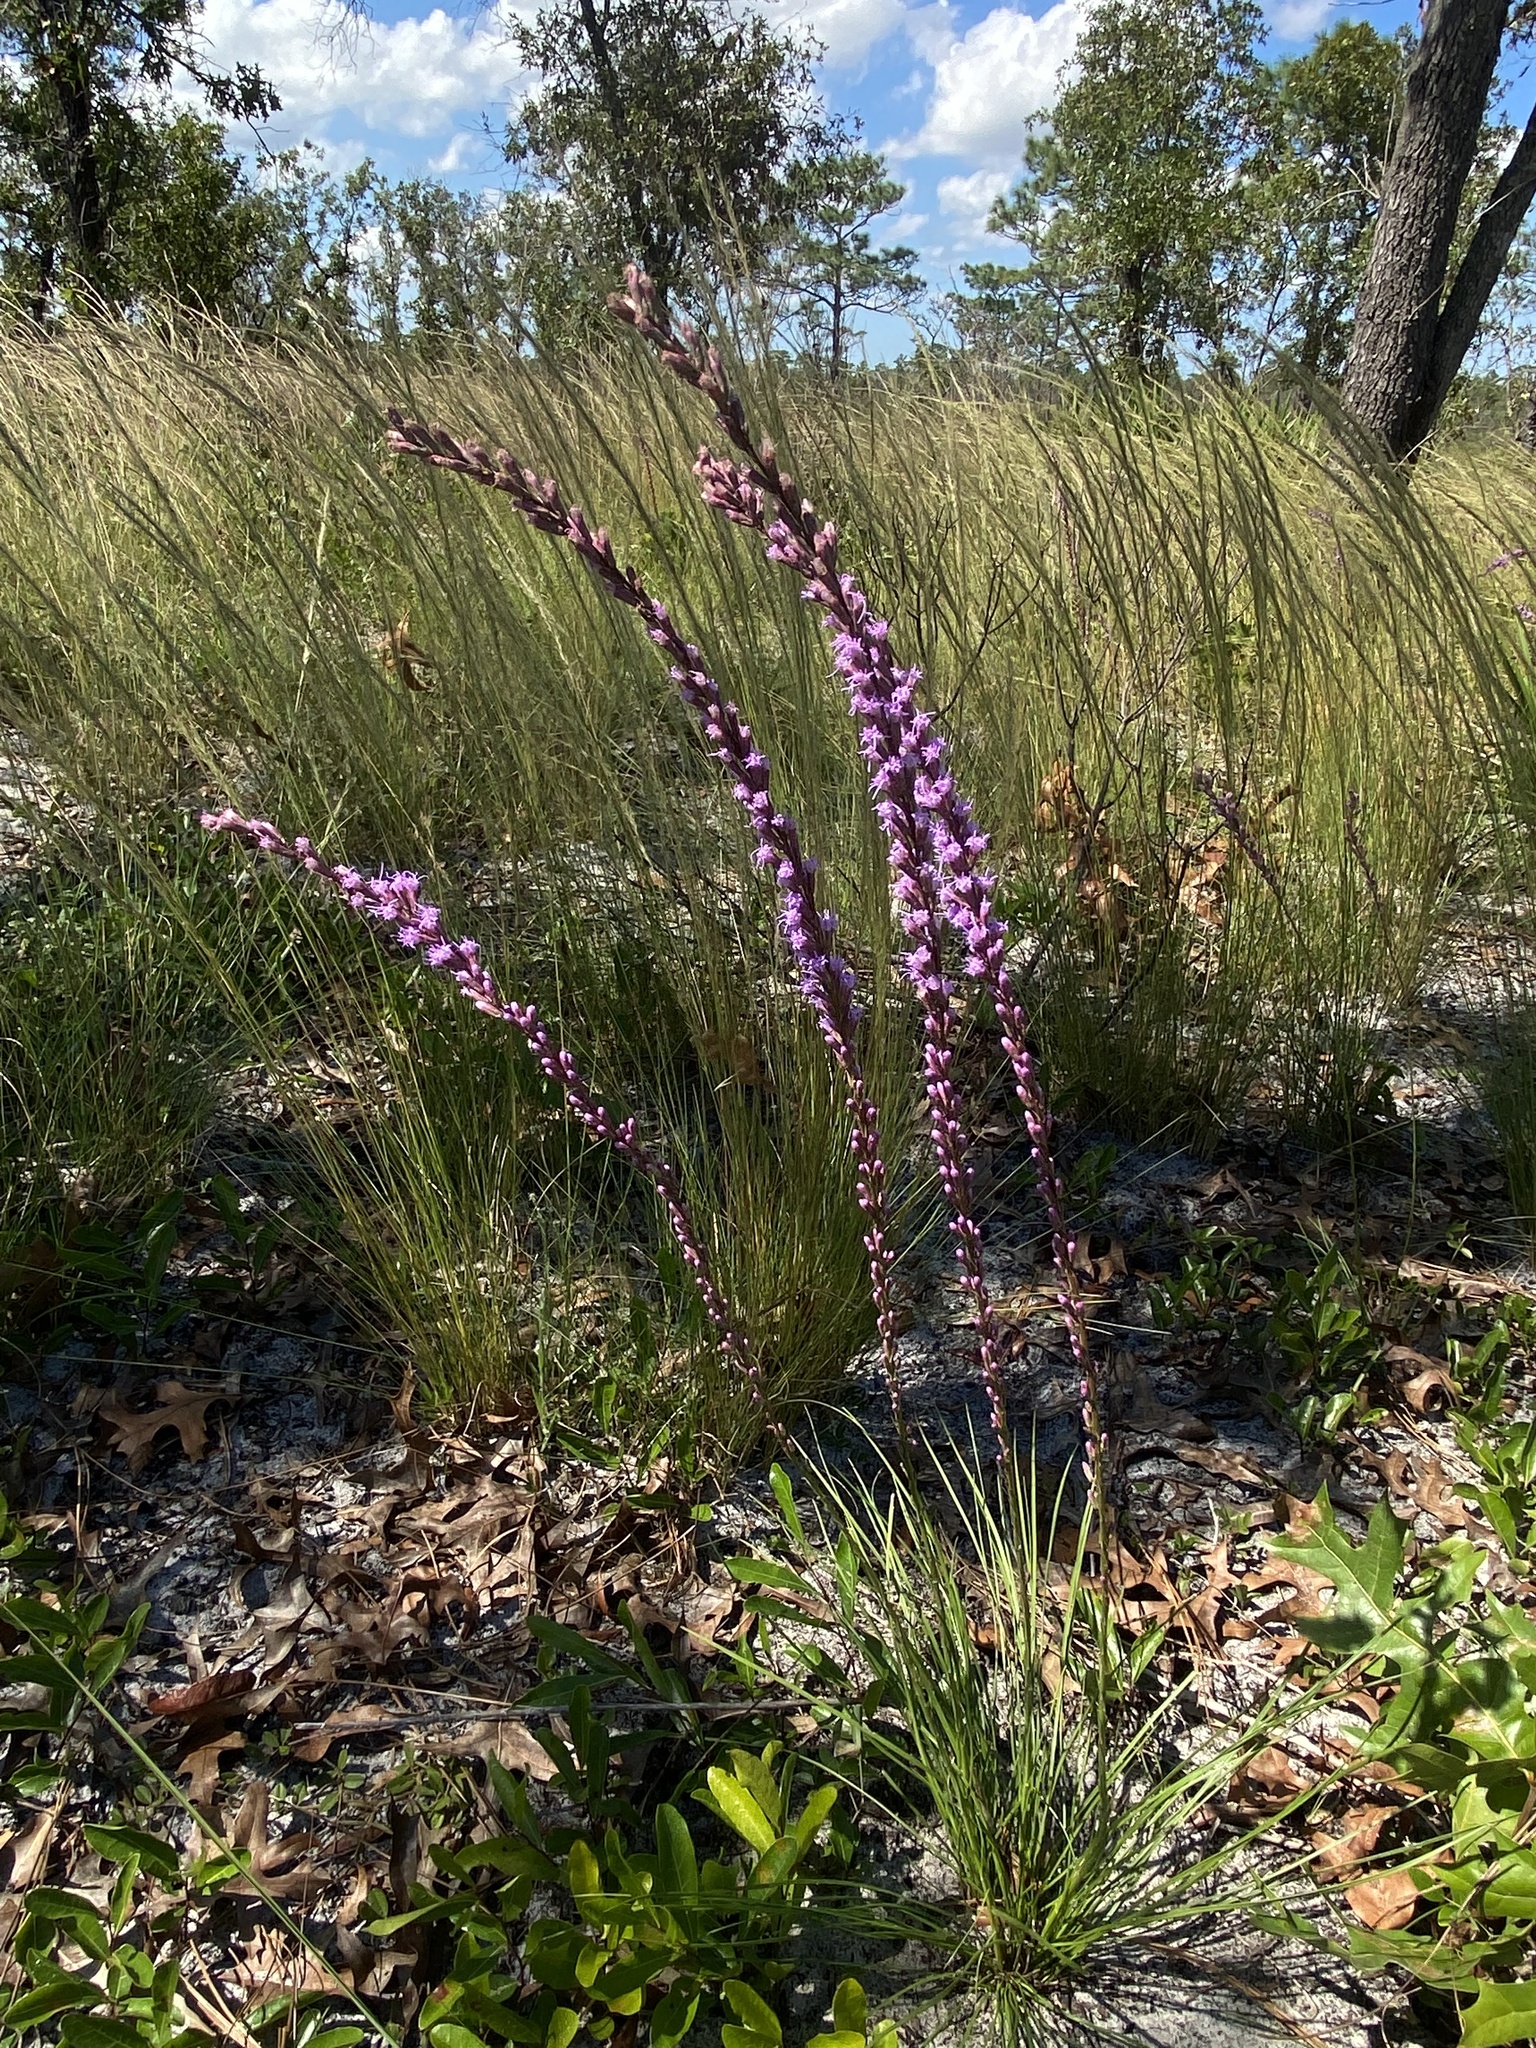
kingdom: Plantae
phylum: Tracheophyta
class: Magnoliopsida
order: Asterales
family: Asteraceae
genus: Liatris
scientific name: Liatris laevigata
